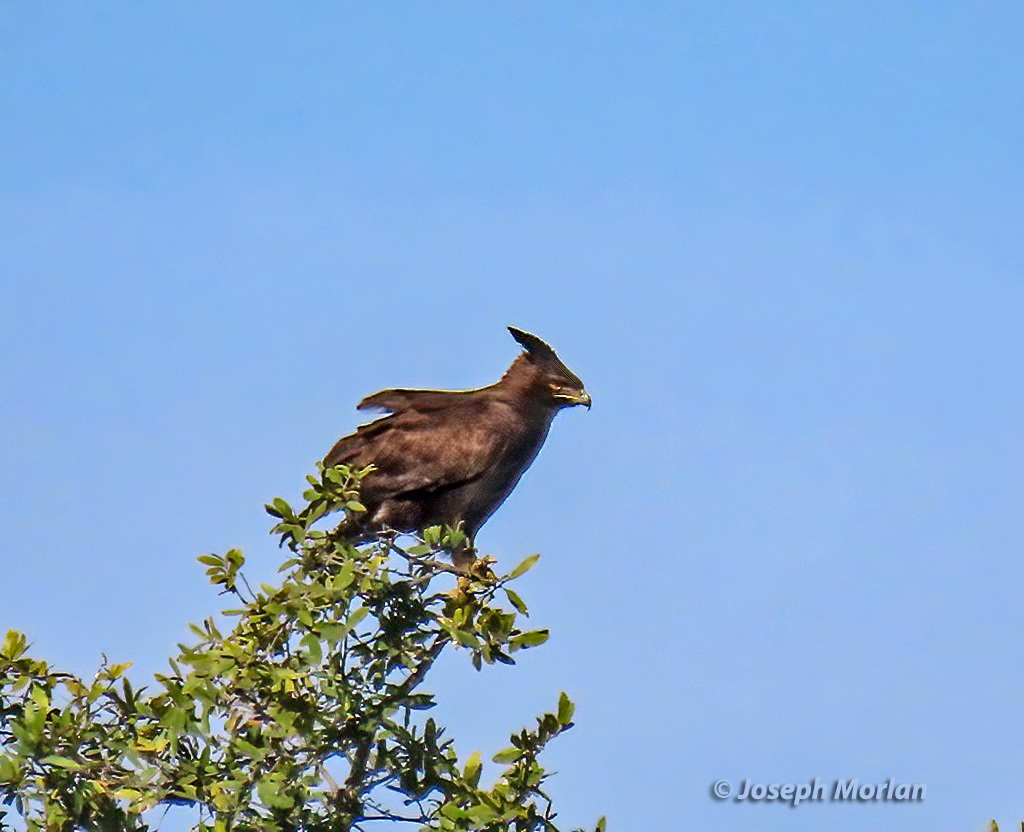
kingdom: Animalia
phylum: Chordata
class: Aves
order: Accipitriformes
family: Accipitridae
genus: Lophaetus
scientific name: Lophaetus occipitalis
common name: Long-crested eagle
